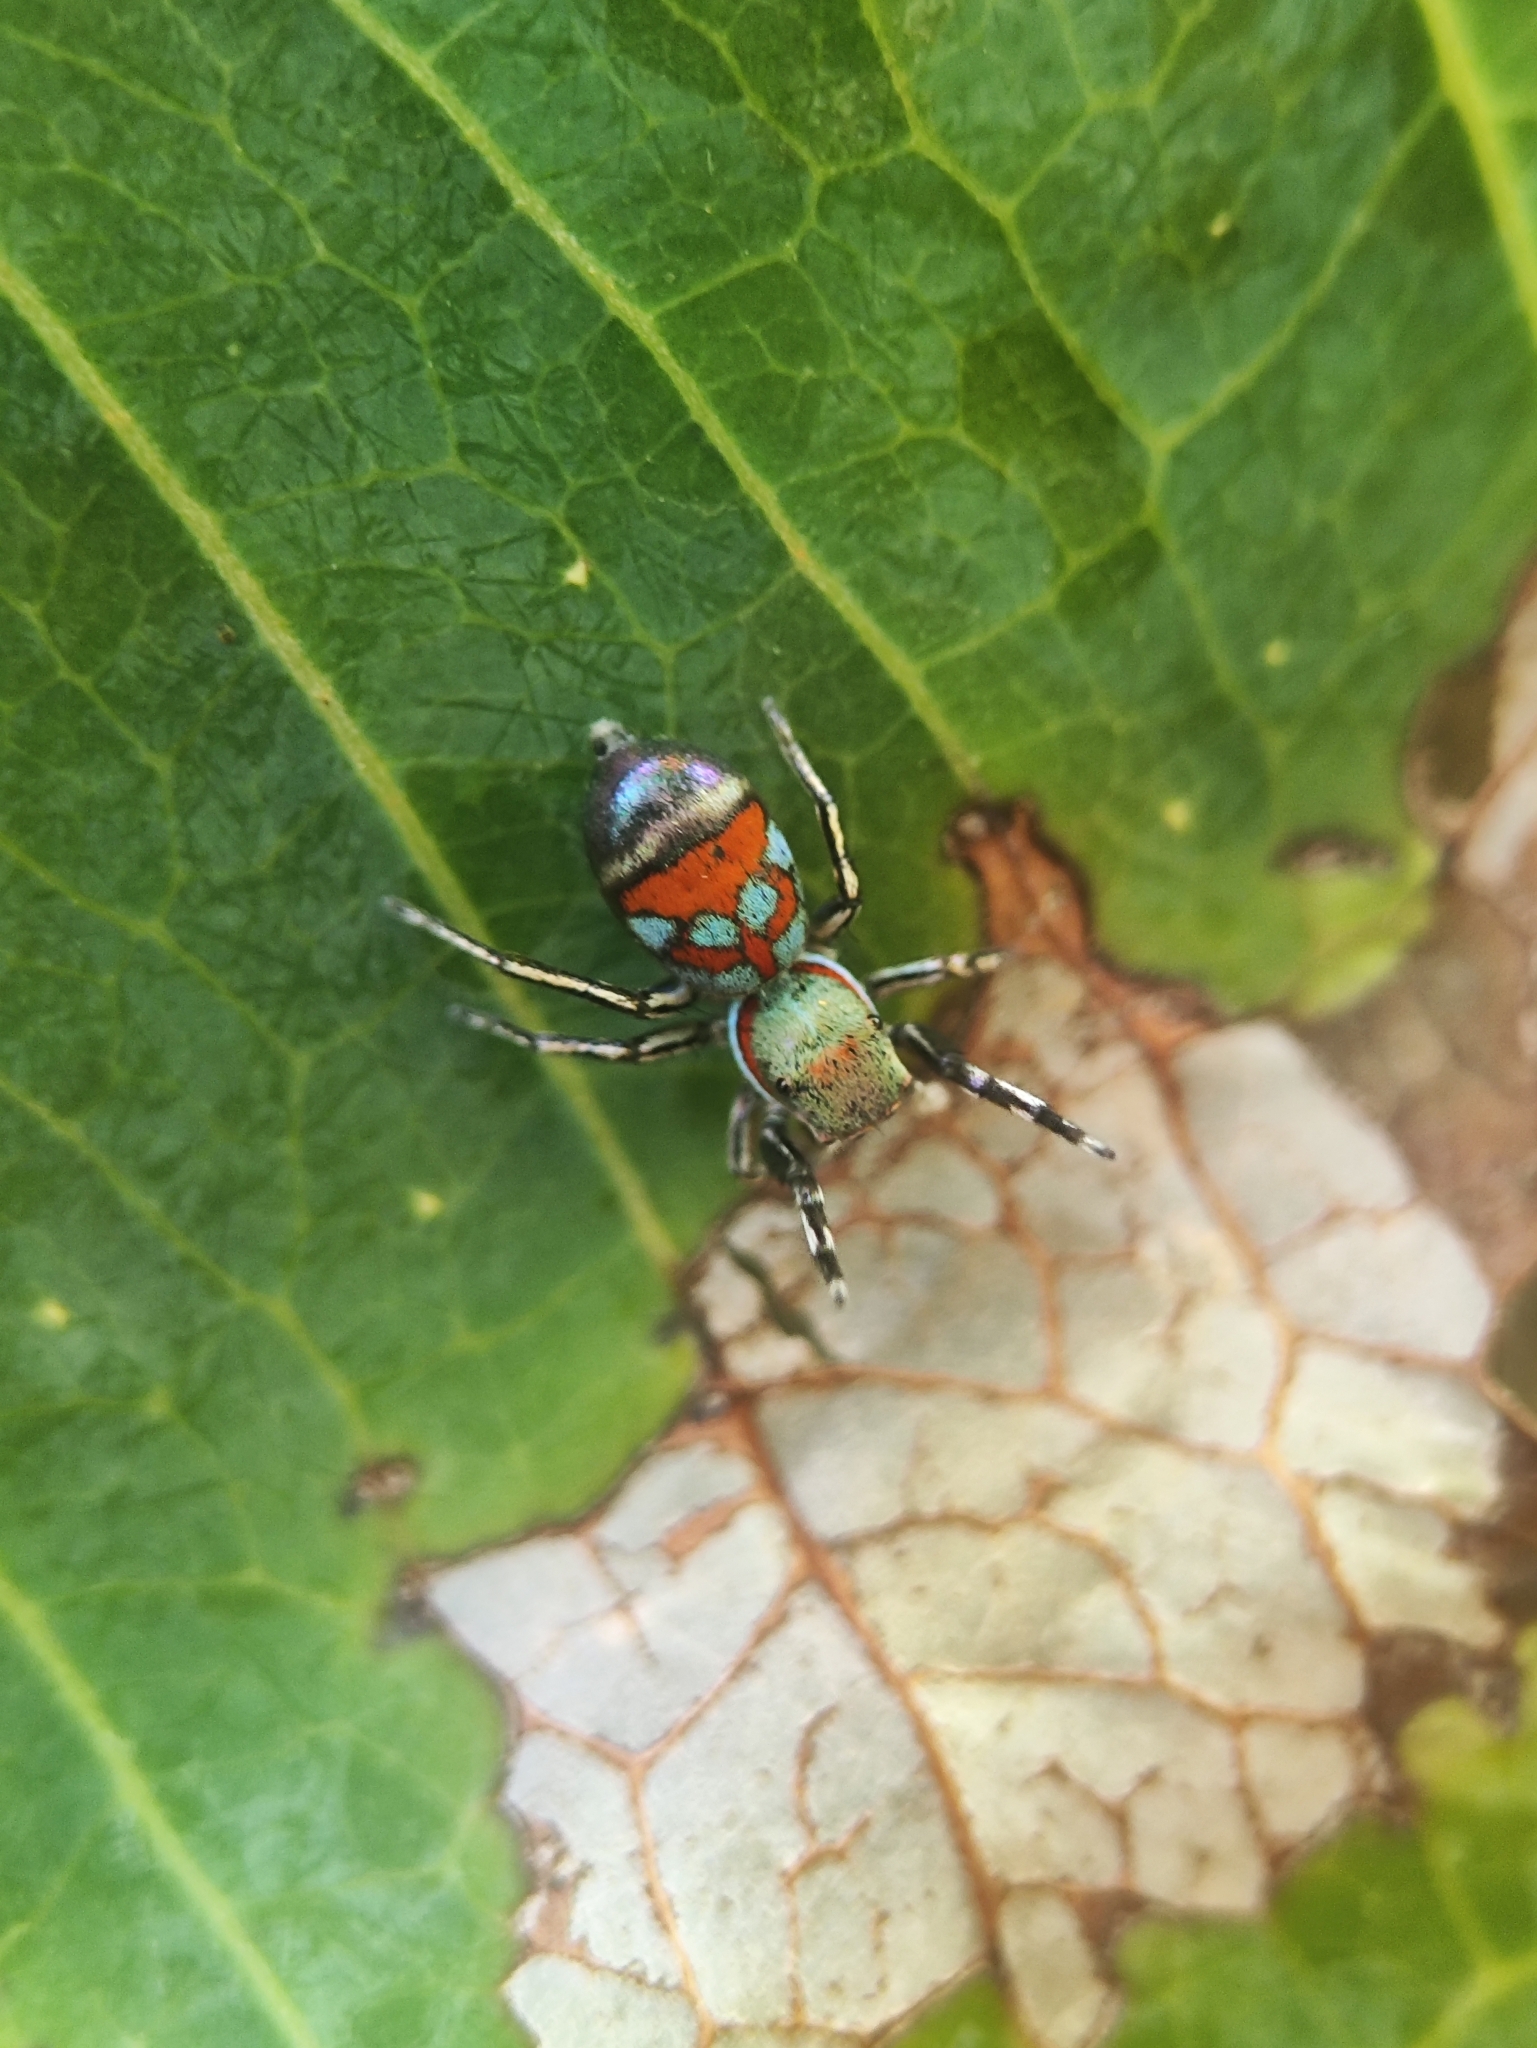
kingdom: Animalia
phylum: Arthropoda
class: Arachnida
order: Araneae
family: Salticidae
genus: Siler
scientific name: Siler niser
